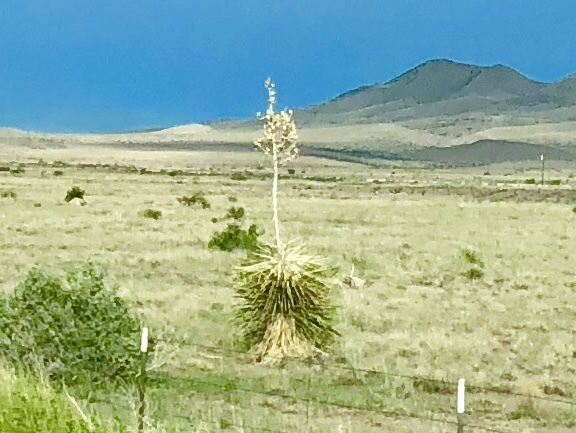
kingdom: Plantae
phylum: Tracheophyta
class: Liliopsida
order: Asparagales
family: Asparagaceae
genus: Yucca
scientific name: Yucca elata
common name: Palmella
